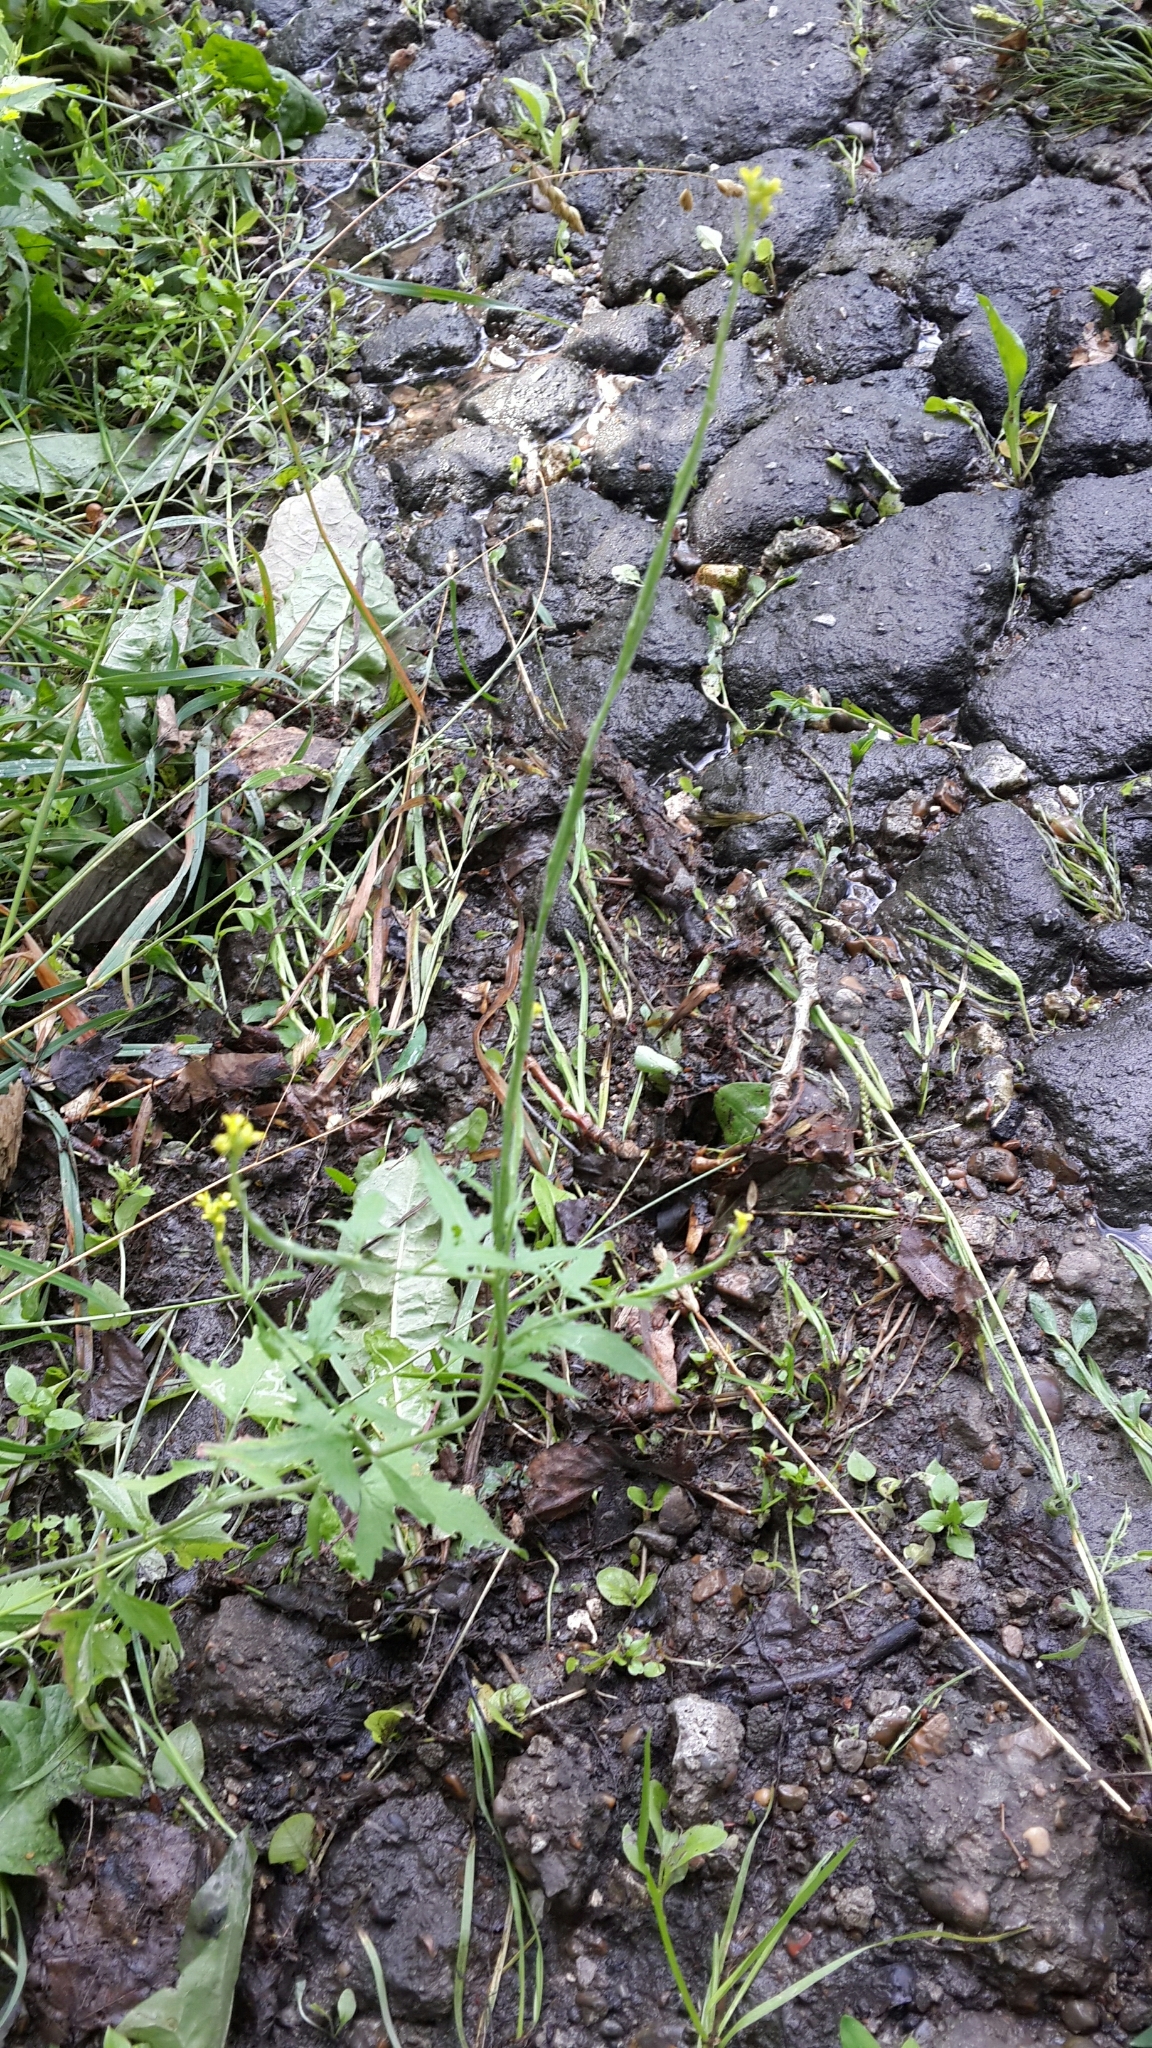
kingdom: Plantae
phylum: Tracheophyta
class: Magnoliopsida
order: Brassicales
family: Brassicaceae
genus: Sisymbrium
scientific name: Sisymbrium officinale
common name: Hedge mustard
